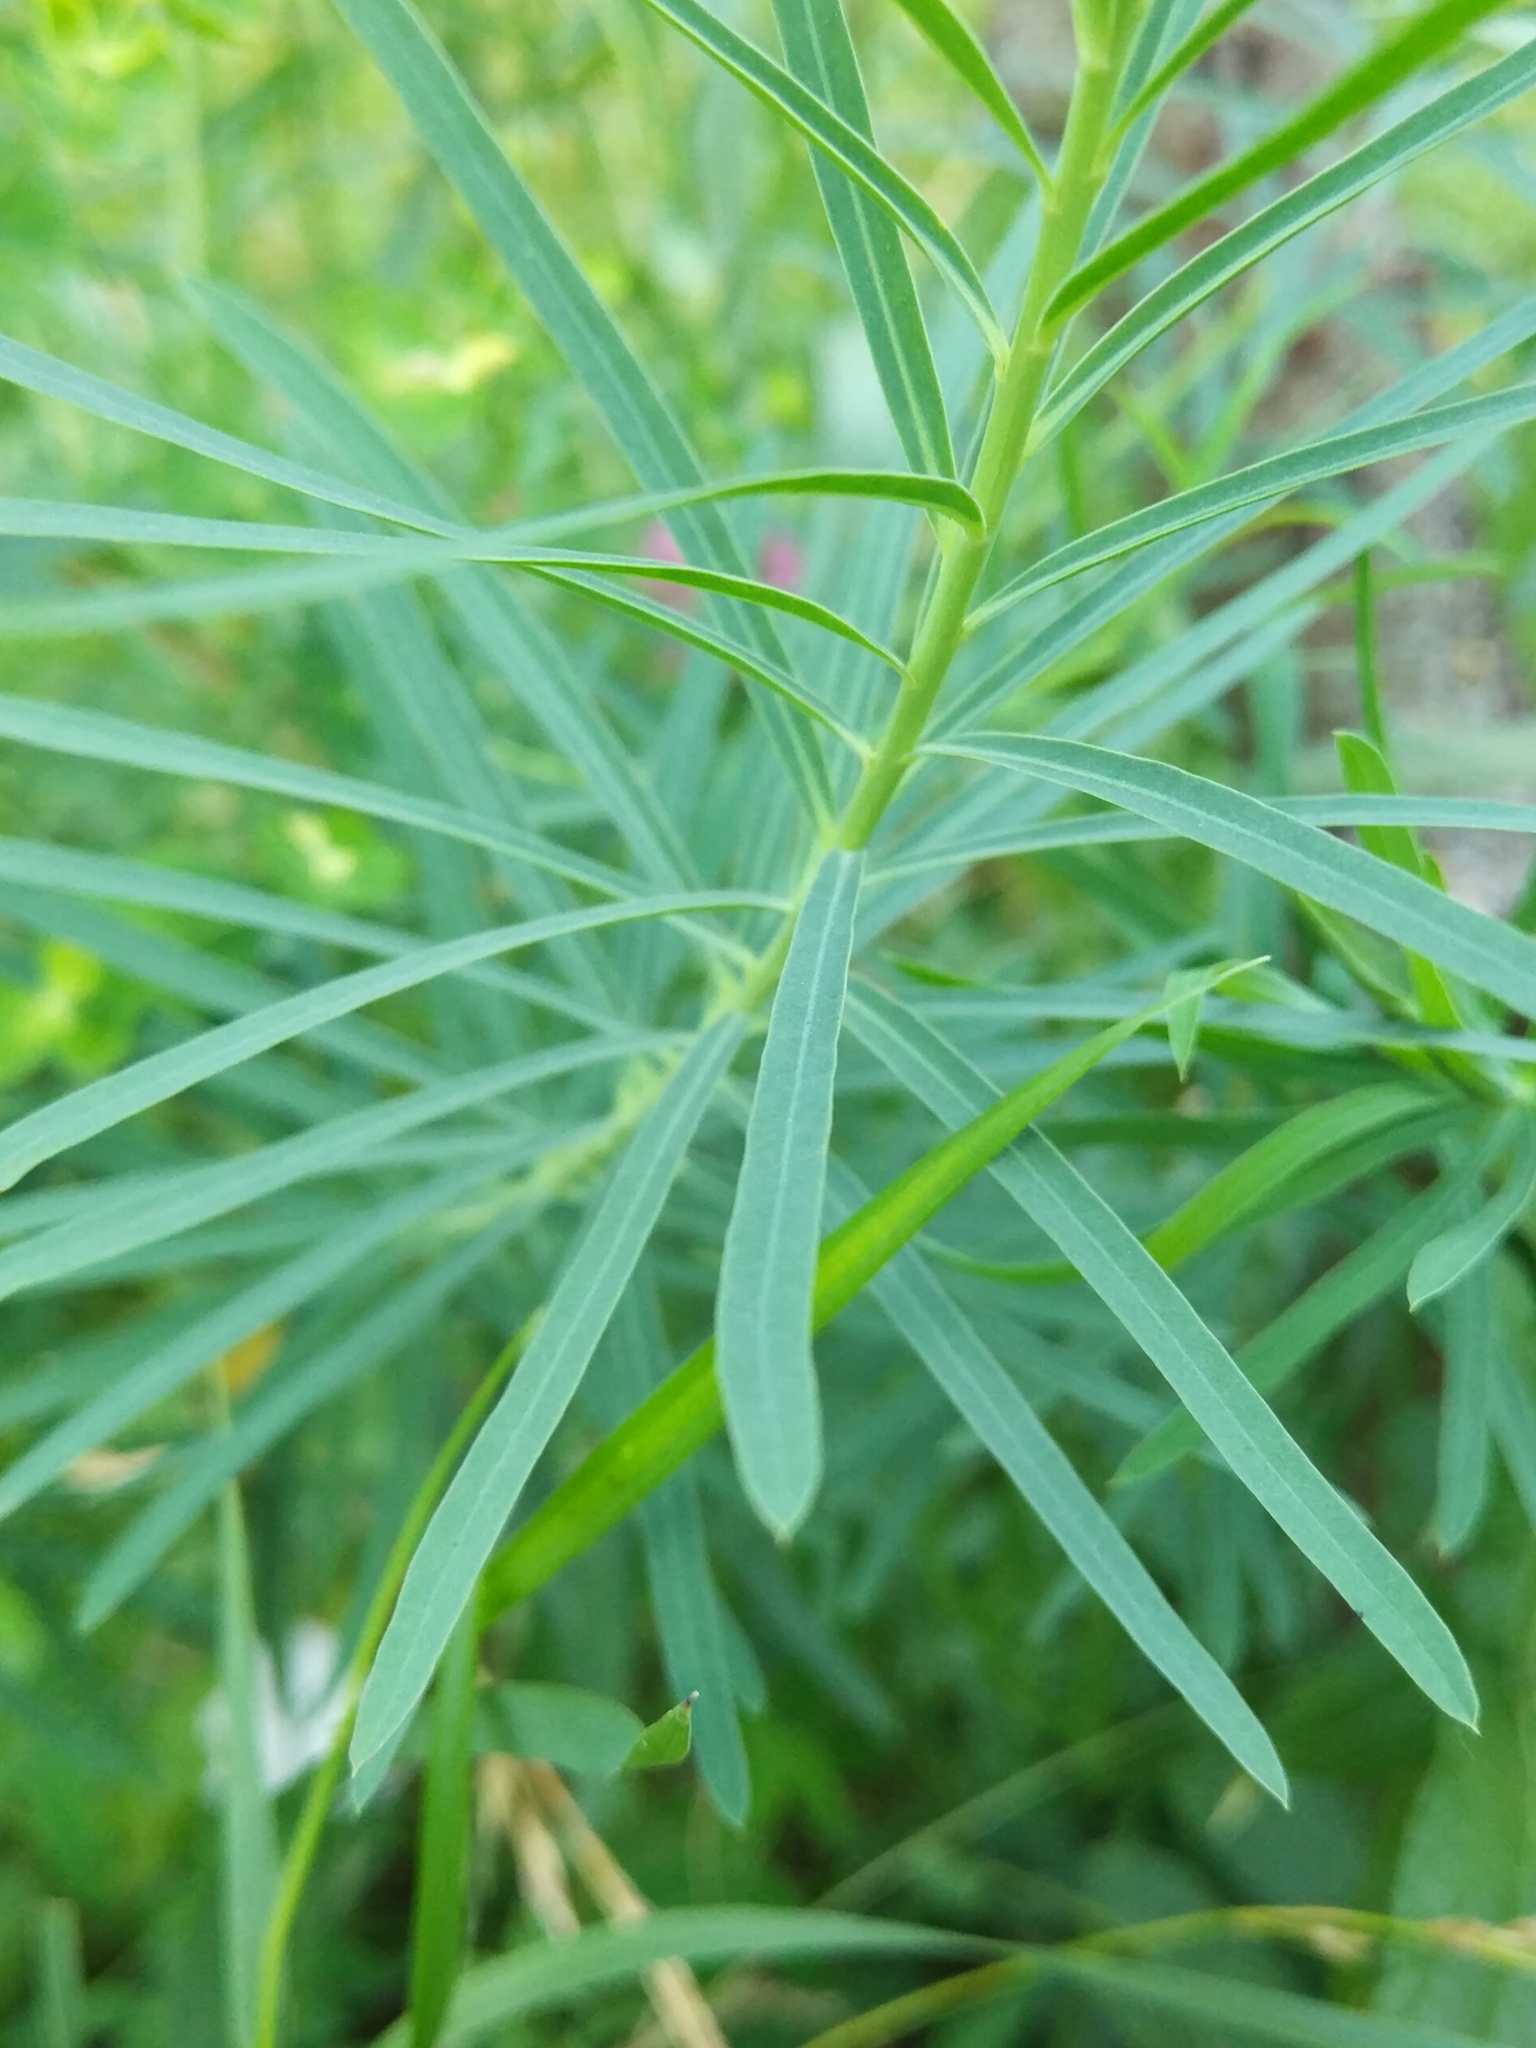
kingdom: Plantae
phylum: Tracheophyta
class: Magnoliopsida
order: Malpighiales
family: Euphorbiaceae
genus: Euphorbia
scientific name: Euphorbia virgata
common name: Leafy spurge
